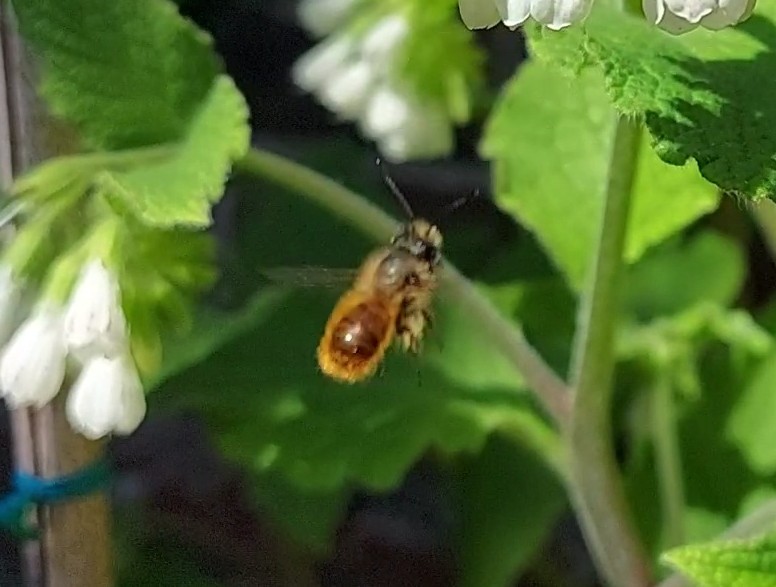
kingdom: Animalia
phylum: Arthropoda
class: Insecta
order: Hymenoptera
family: Megachilidae
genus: Osmia
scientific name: Osmia bicornis
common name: Red mason bee
